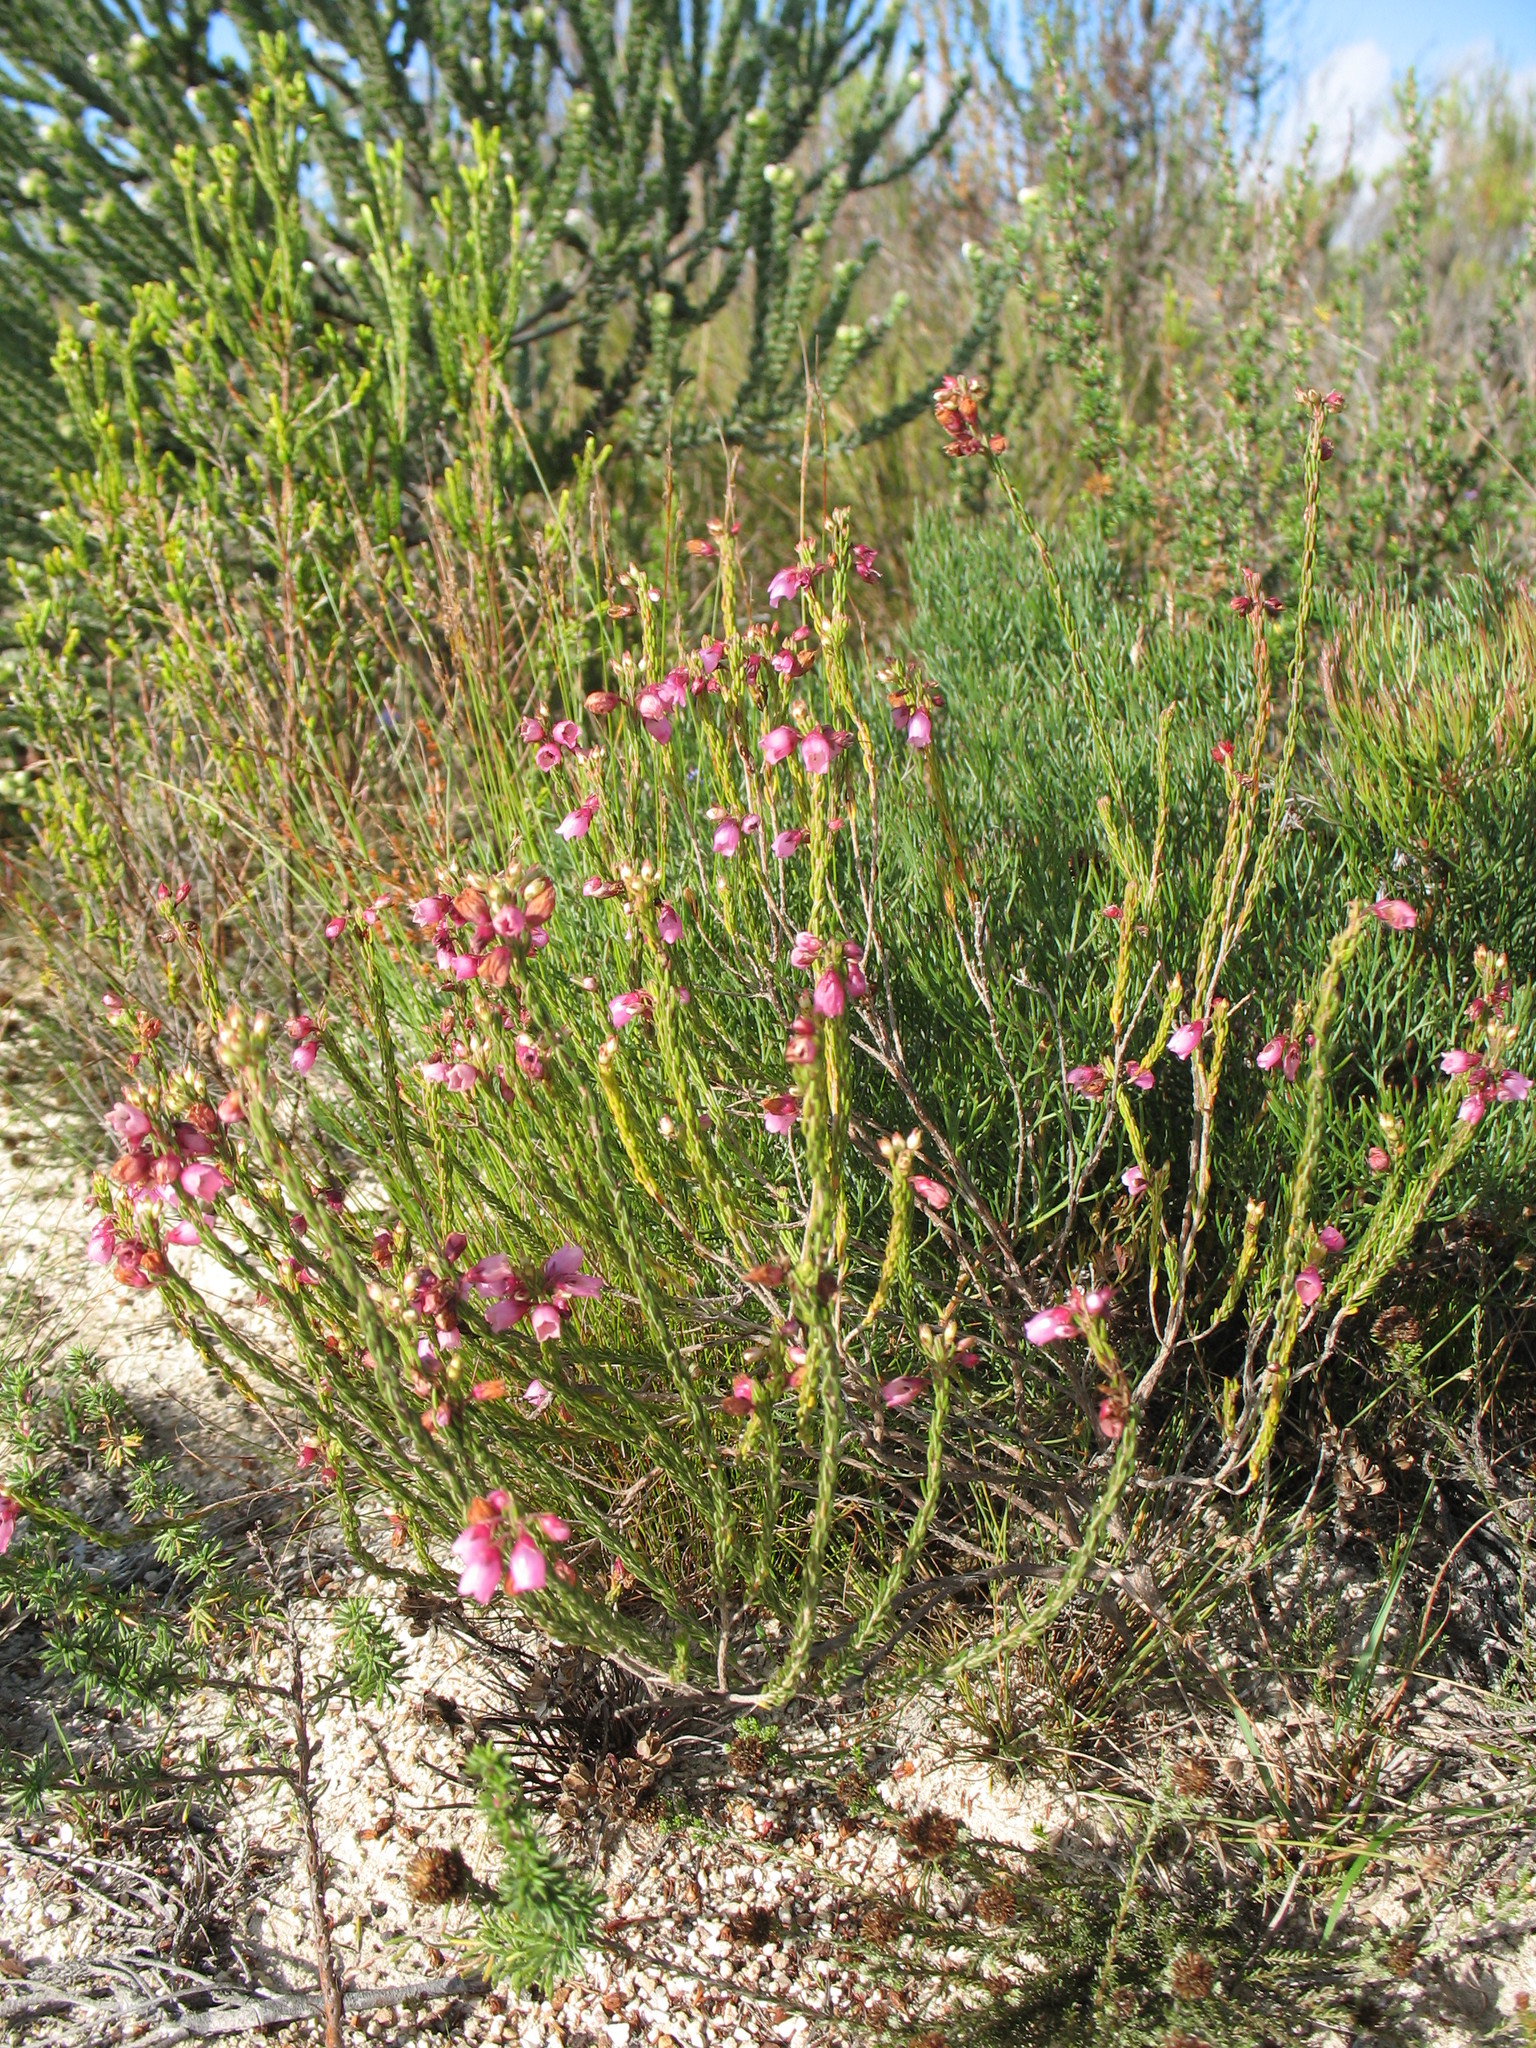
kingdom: Plantae
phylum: Tracheophyta
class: Magnoliopsida
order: Ericales
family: Ericaceae
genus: Erica
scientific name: Erica axilliflora
